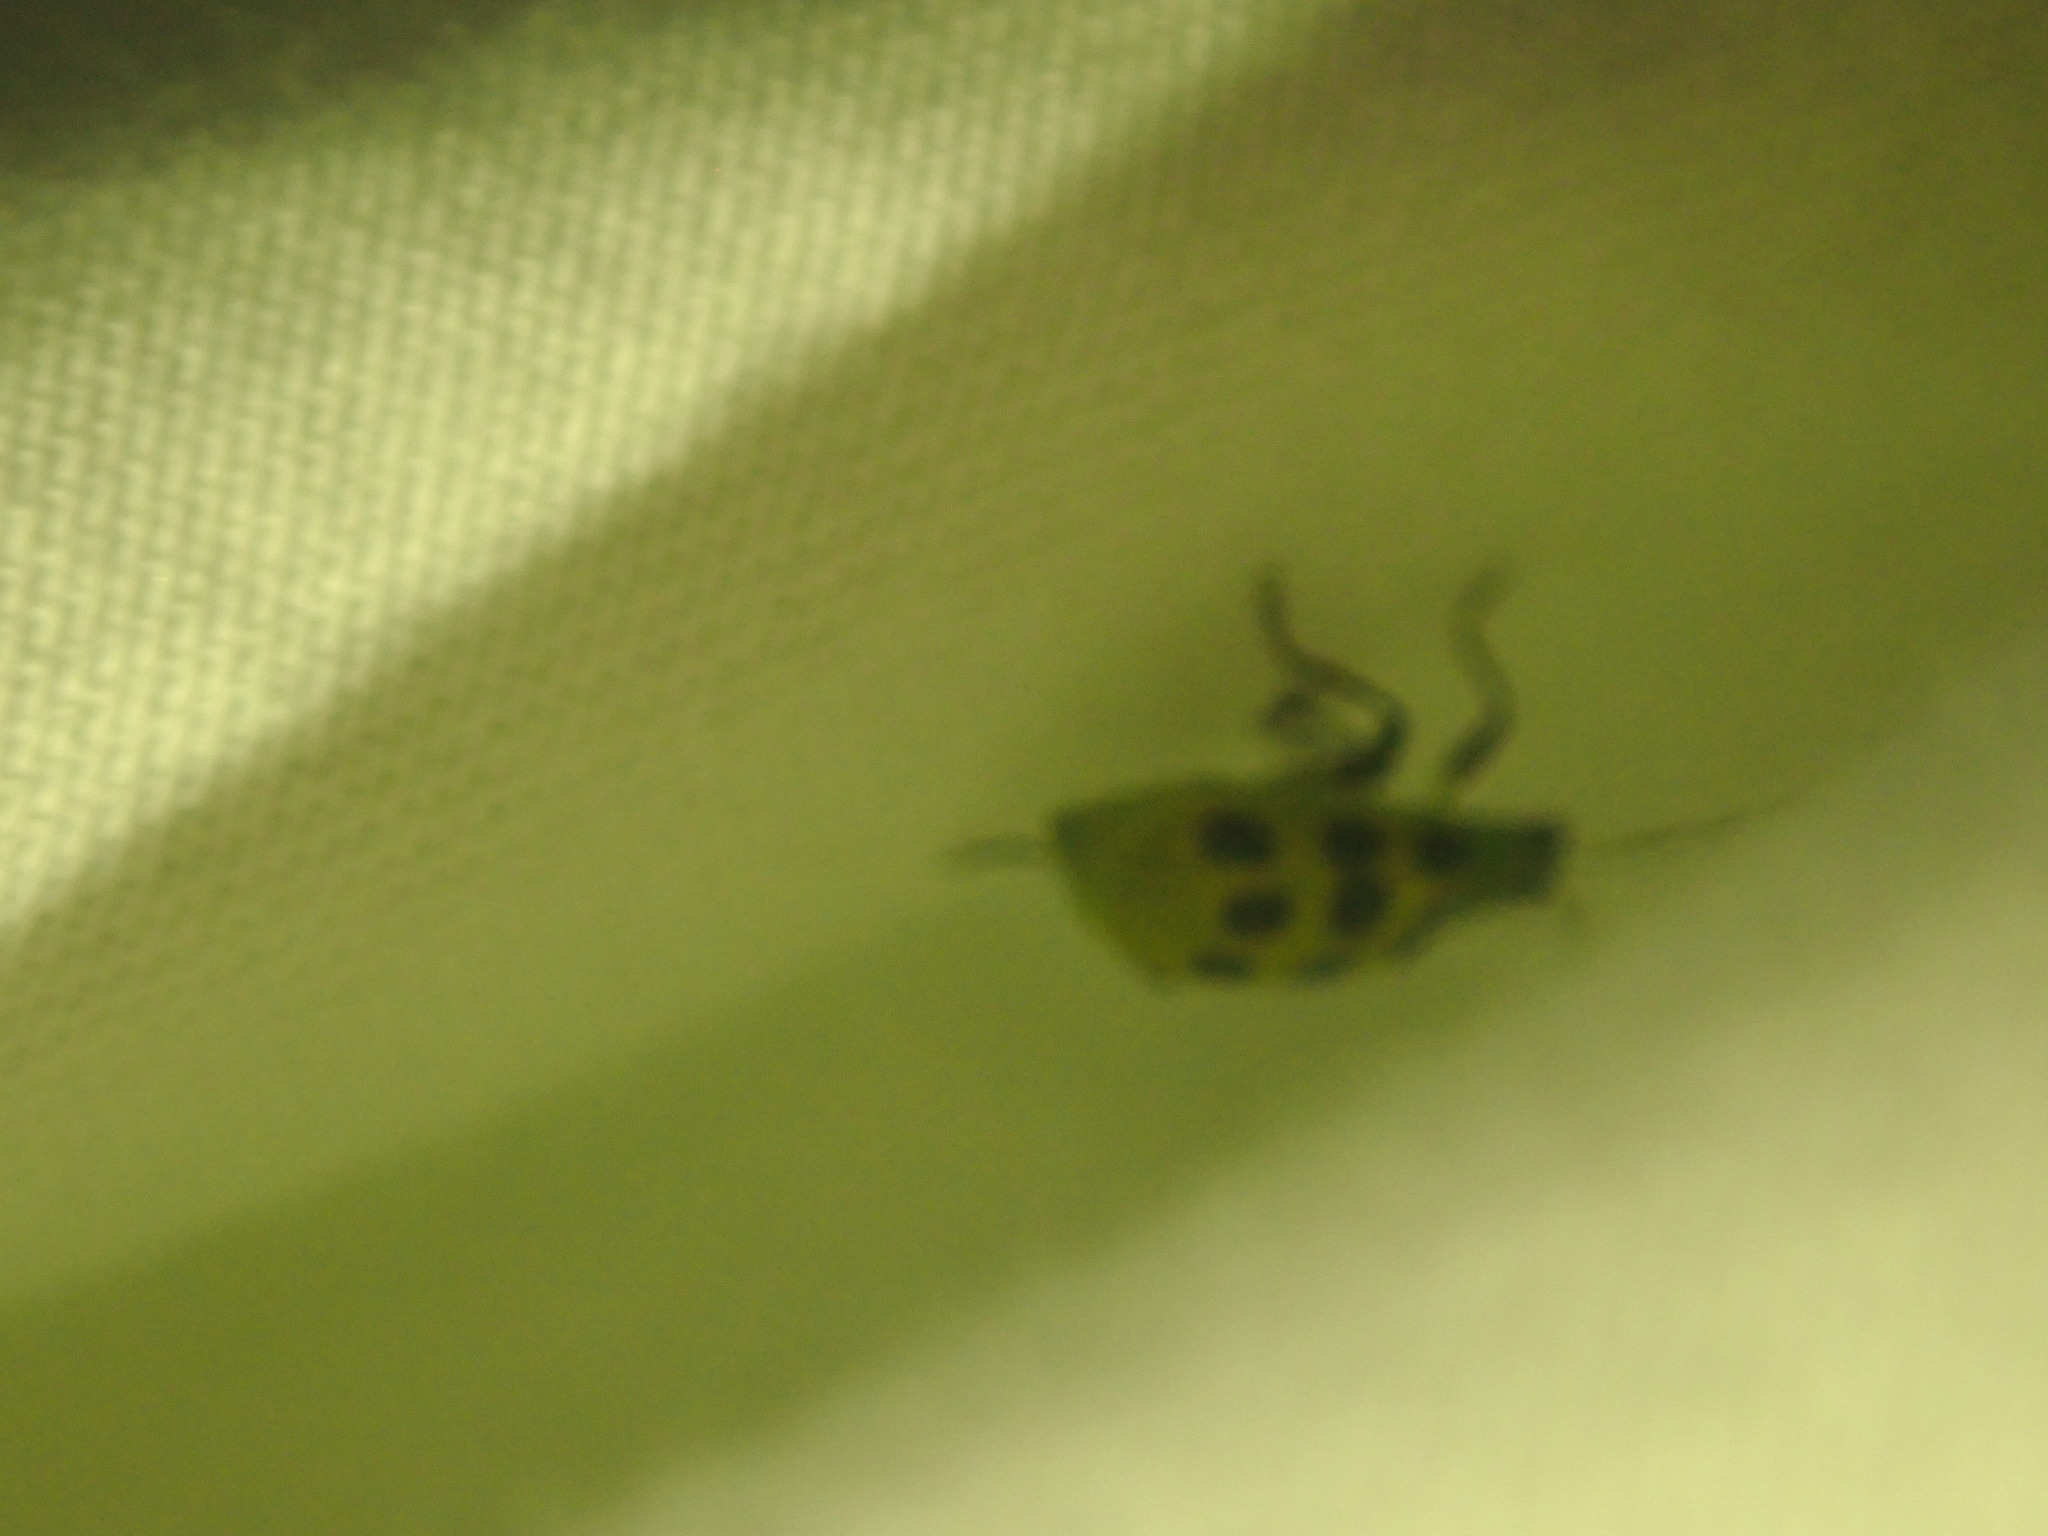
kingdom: Animalia
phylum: Arthropoda
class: Insecta
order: Coleoptera
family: Chrysomelidae
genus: Diabrotica
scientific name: Diabrotica undecimpunctata
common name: Spotted cucumber beetle
